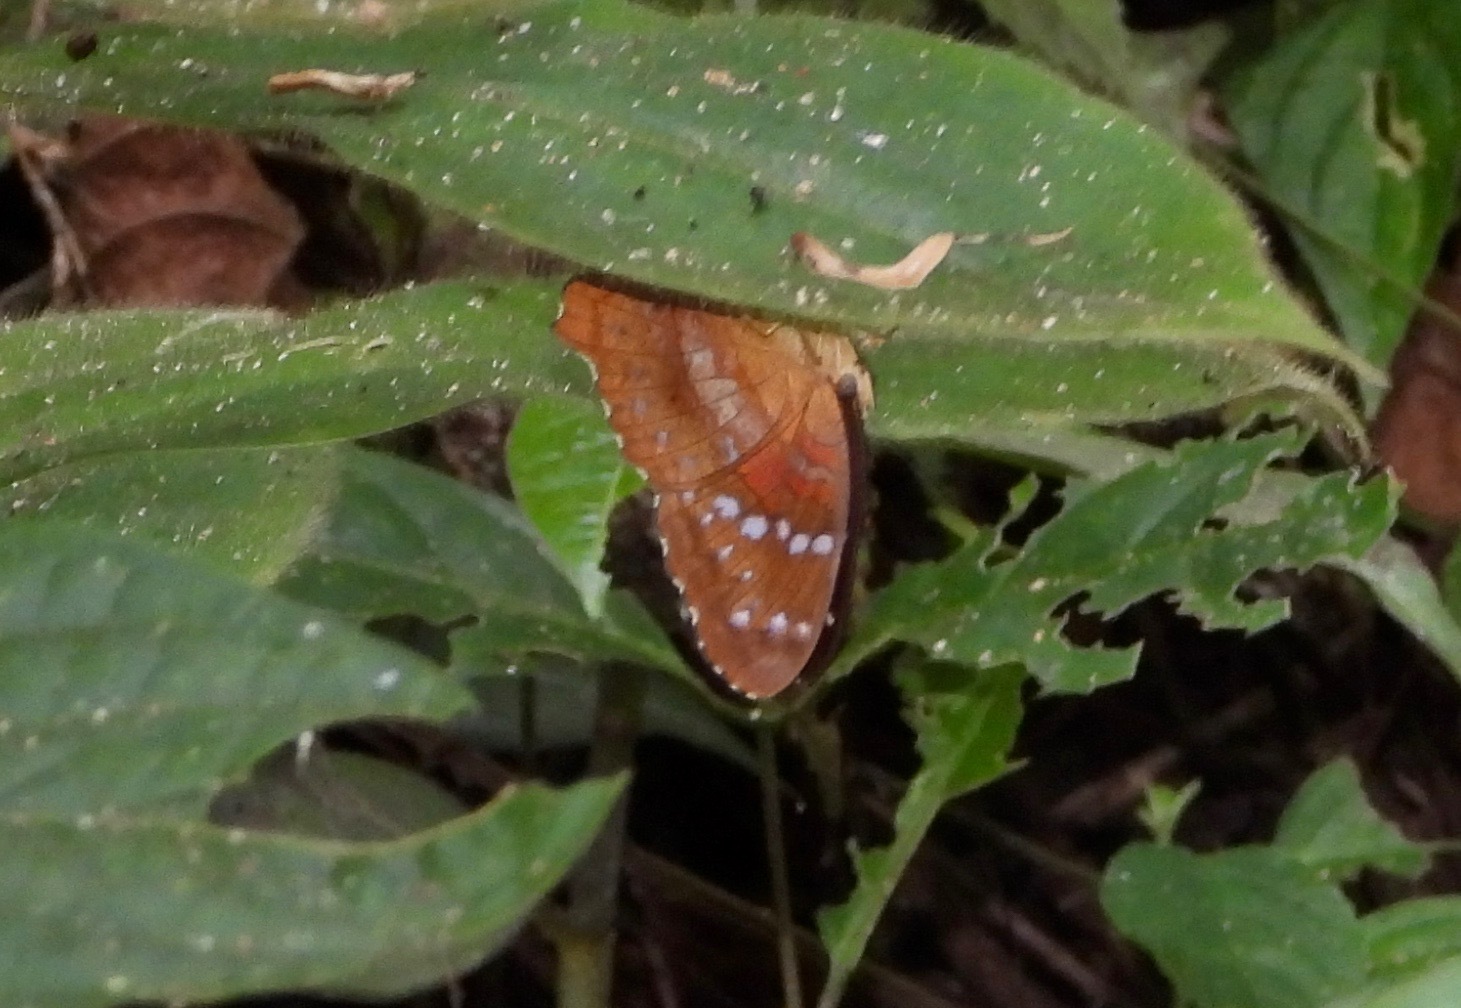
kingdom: Animalia
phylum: Arthropoda
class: Insecta
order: Lepidoptera
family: Nymphalidae
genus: Anartia
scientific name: Anartia amathea
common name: Red peacock
